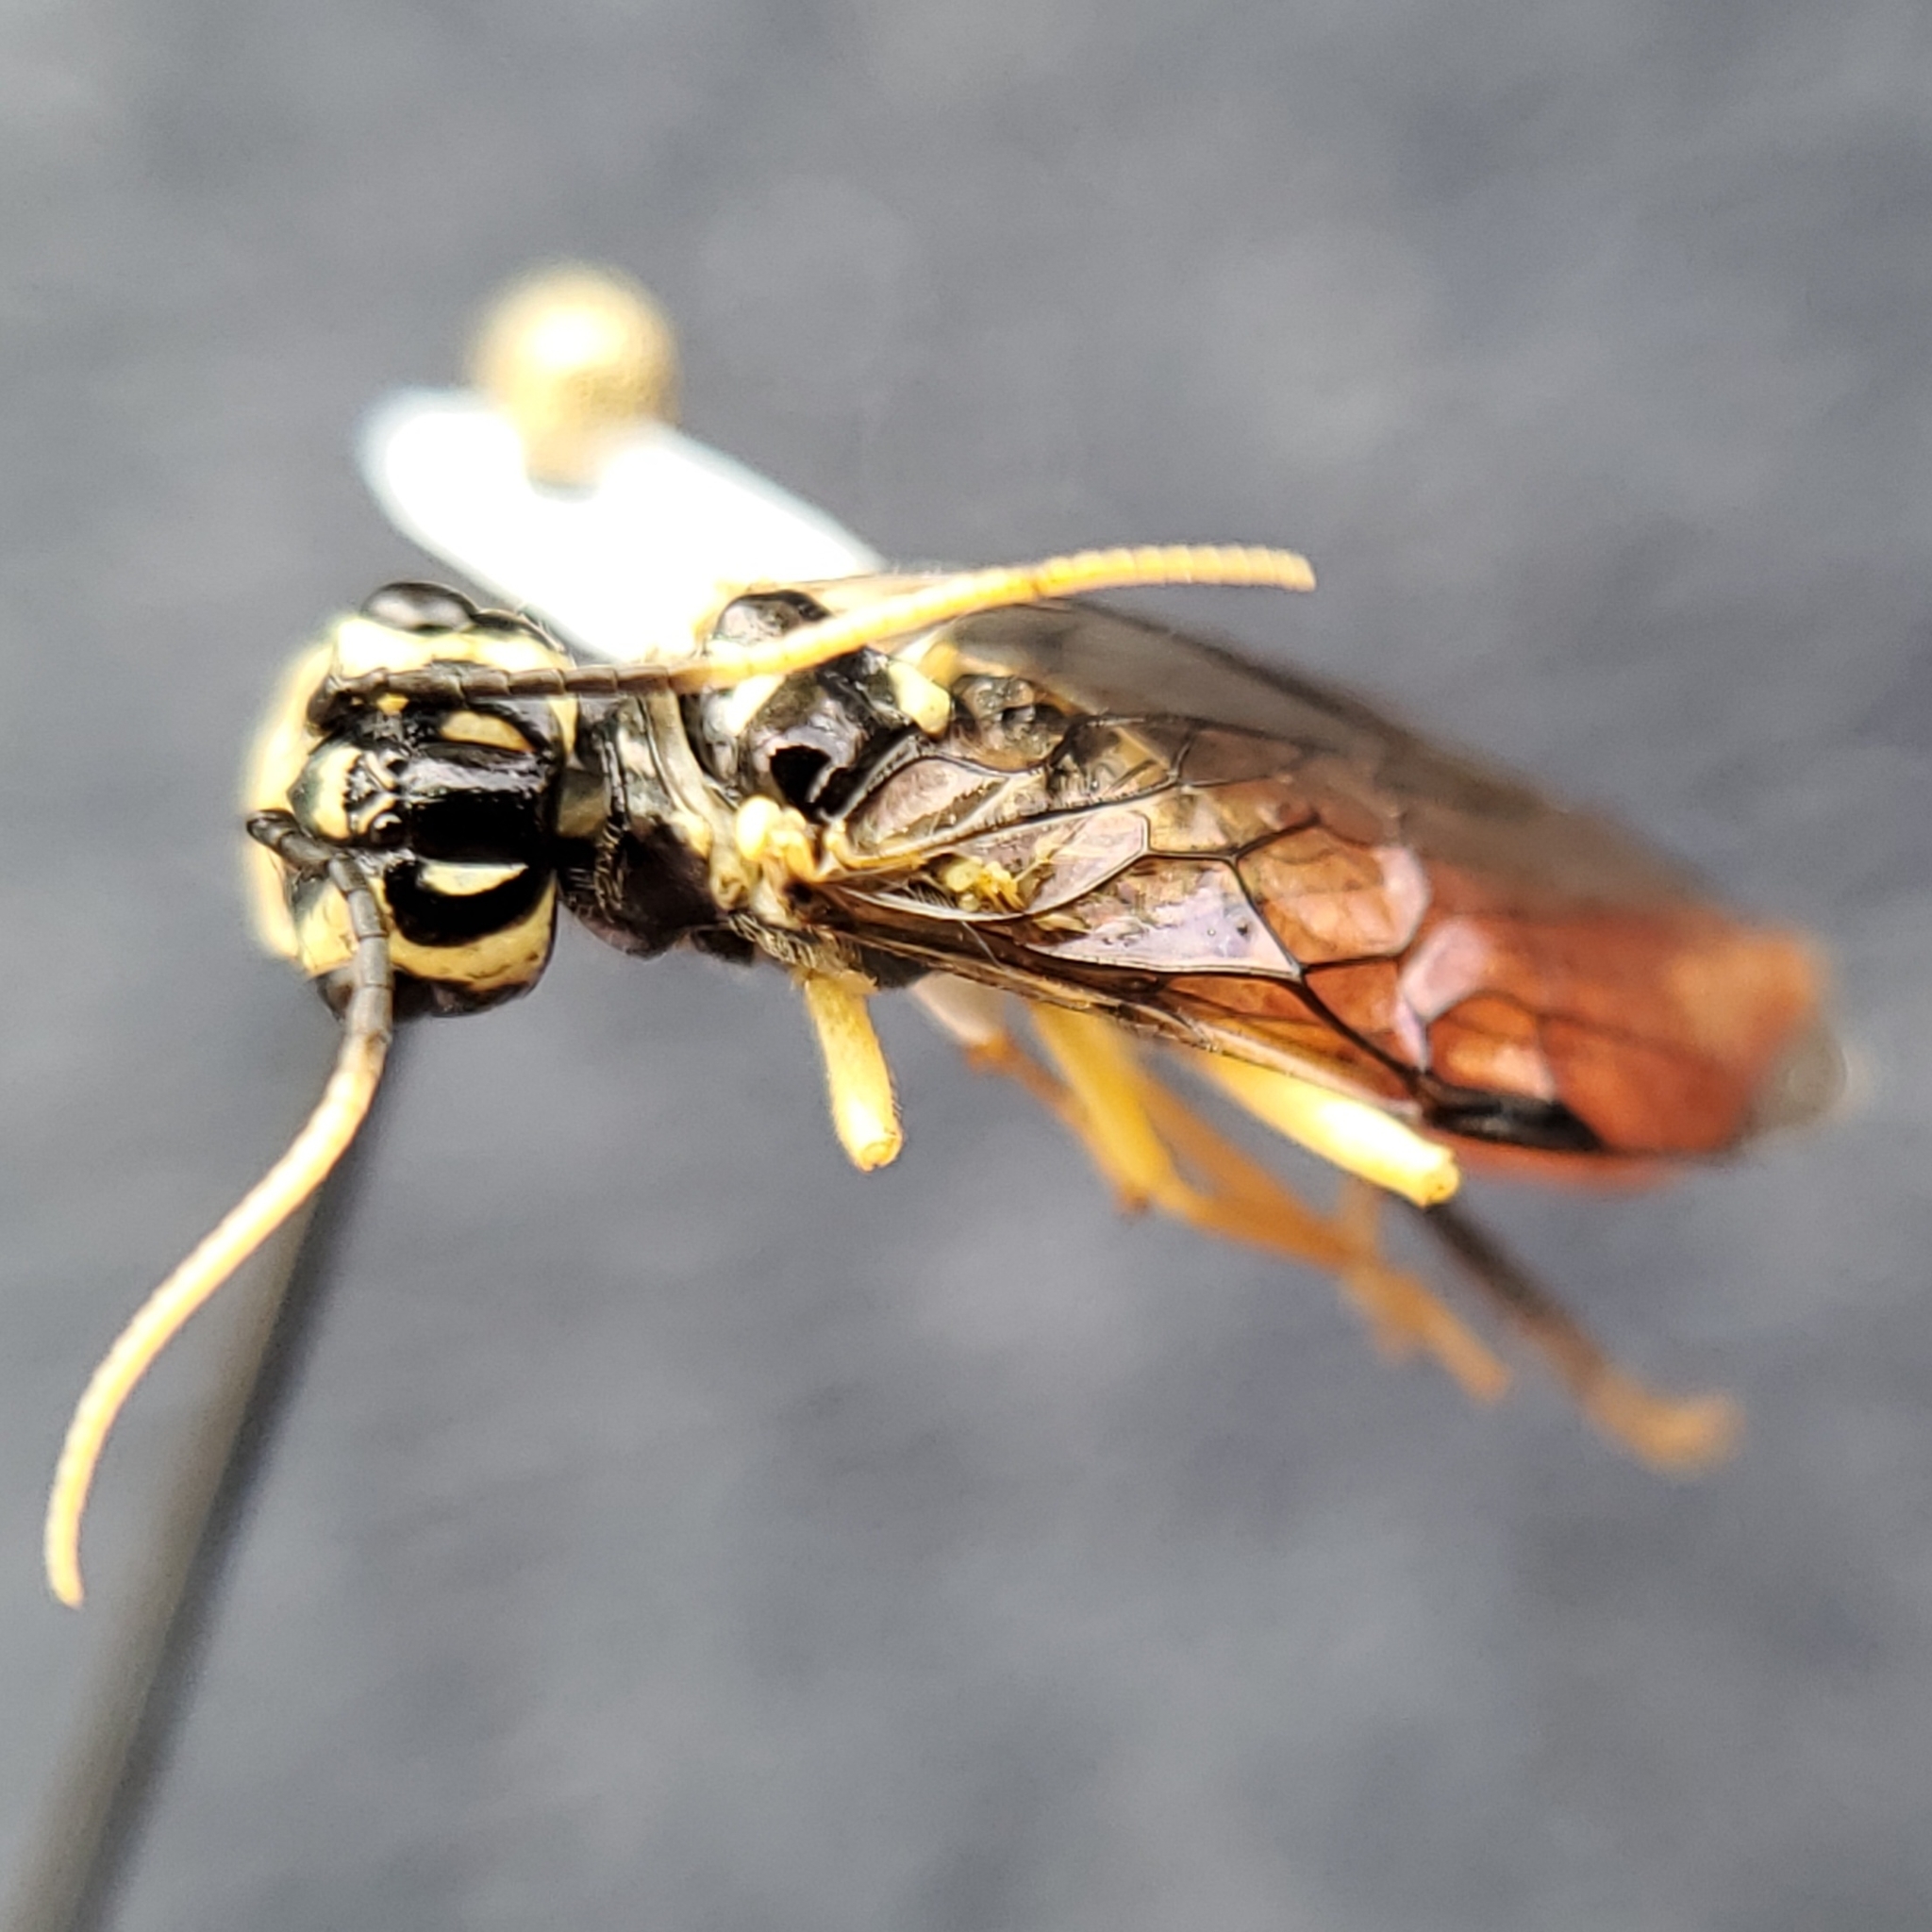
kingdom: Animalia
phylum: Arthropoda
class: Insecta
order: Hymenoptera
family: Pamphiliidae
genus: Onycholyda
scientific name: Onycholyda
